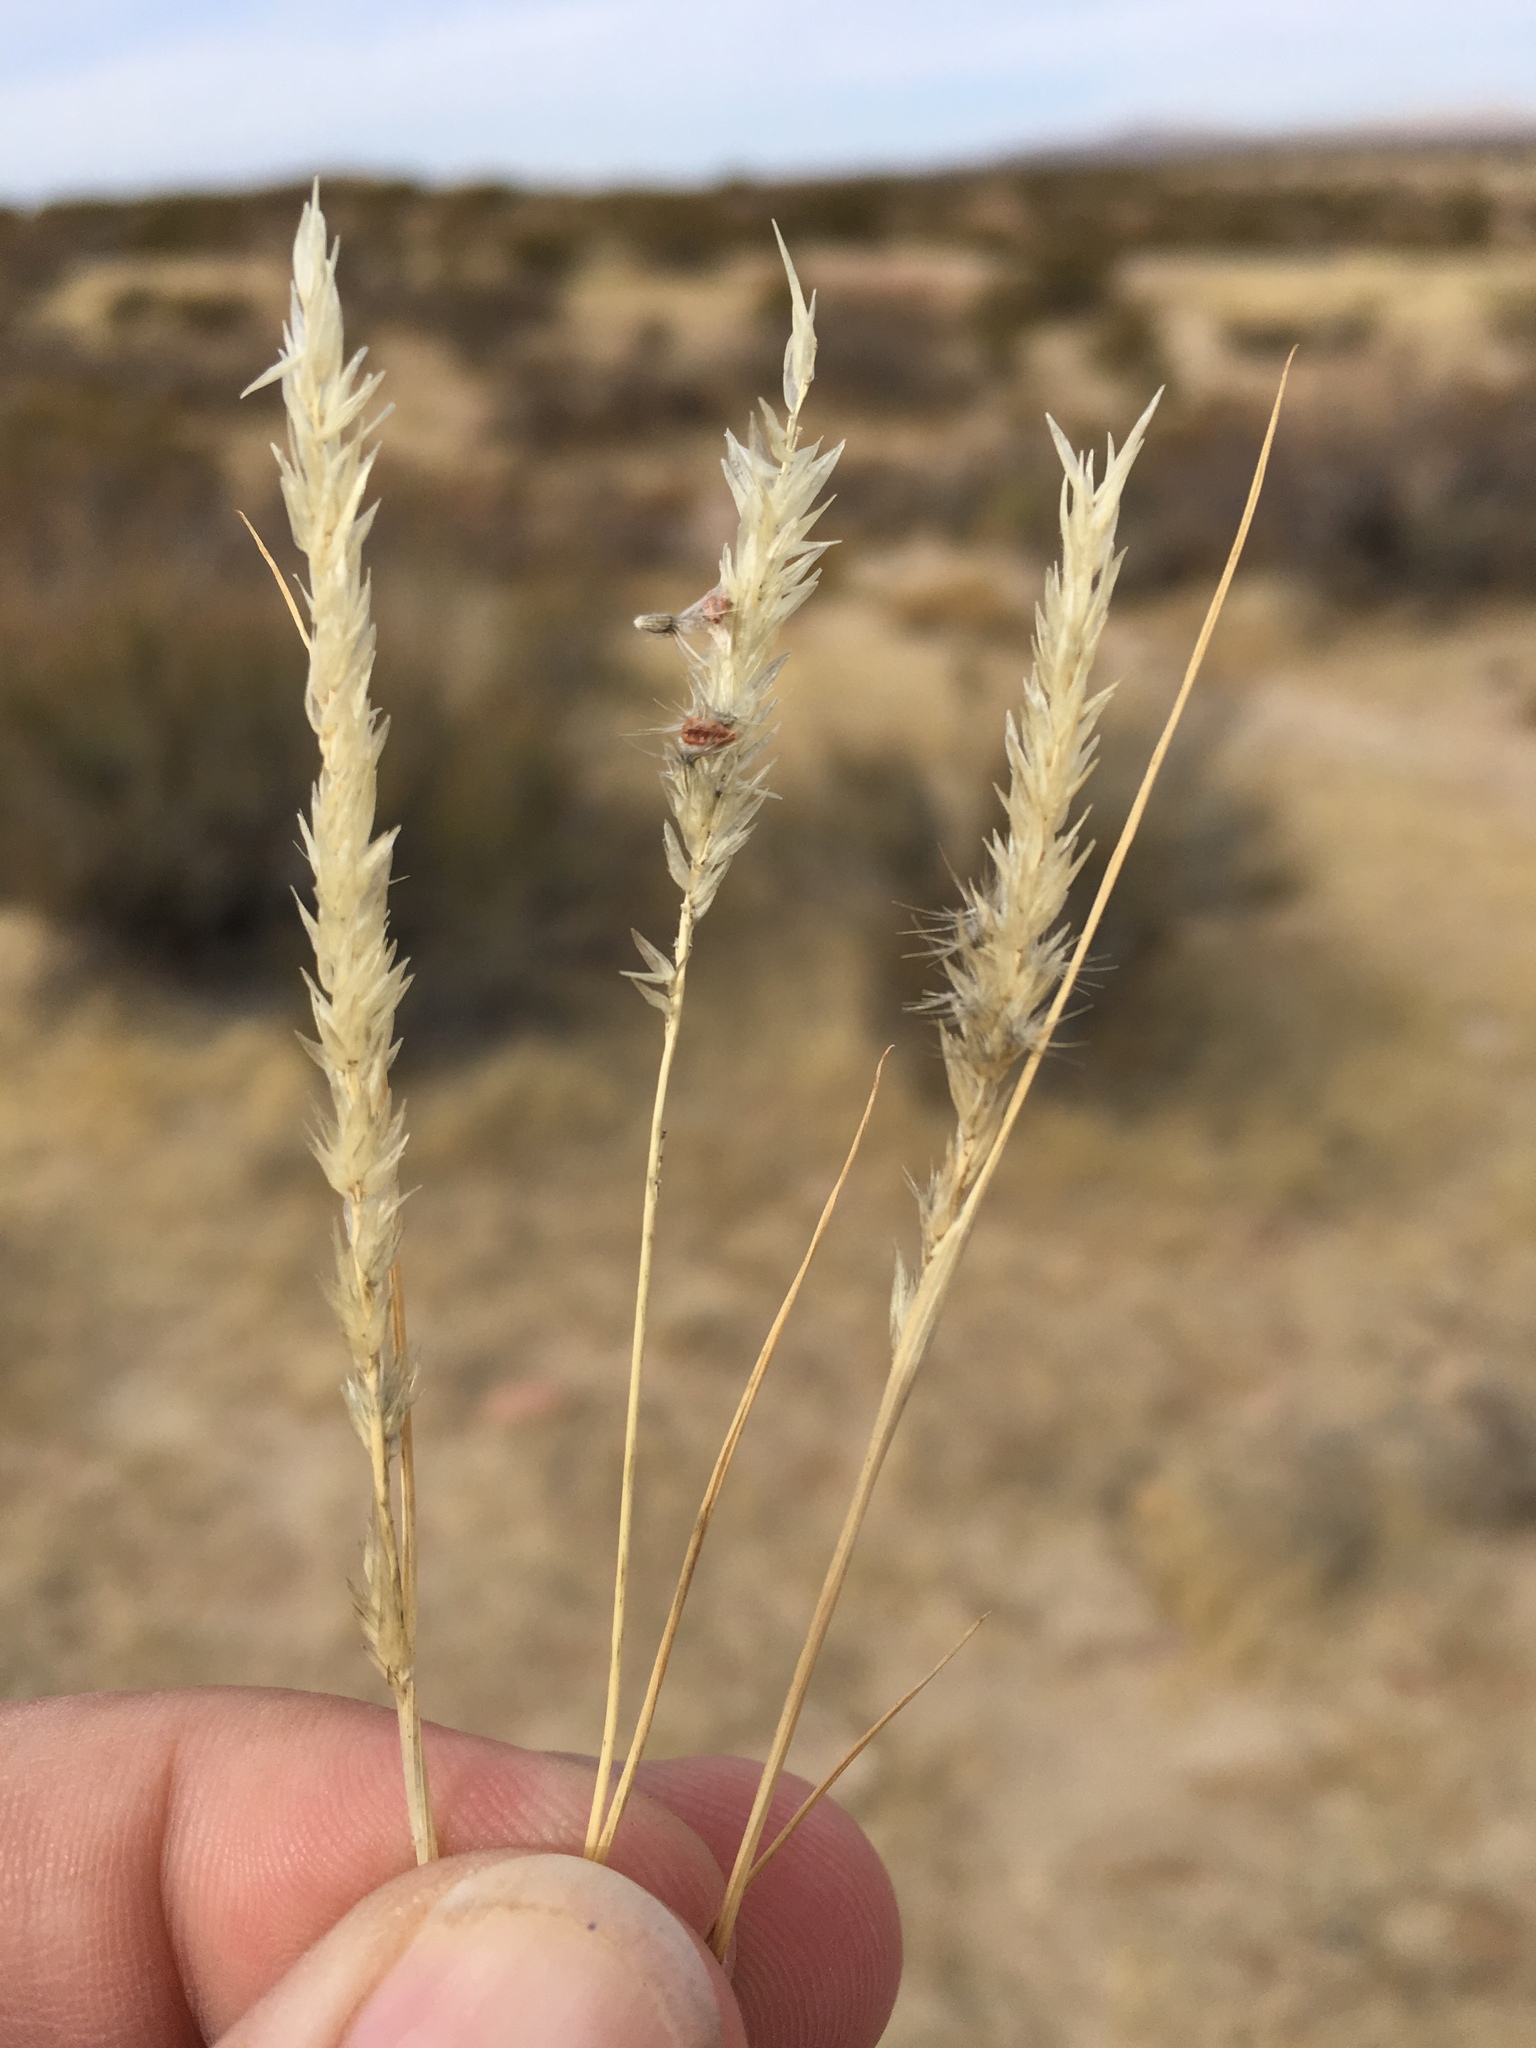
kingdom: Plantae
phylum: Tracheophyta
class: Liliopsida
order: Poales
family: Poaceae
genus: Enneapogon
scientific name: Enneapogon desvauxii
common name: Feather pappus grass
